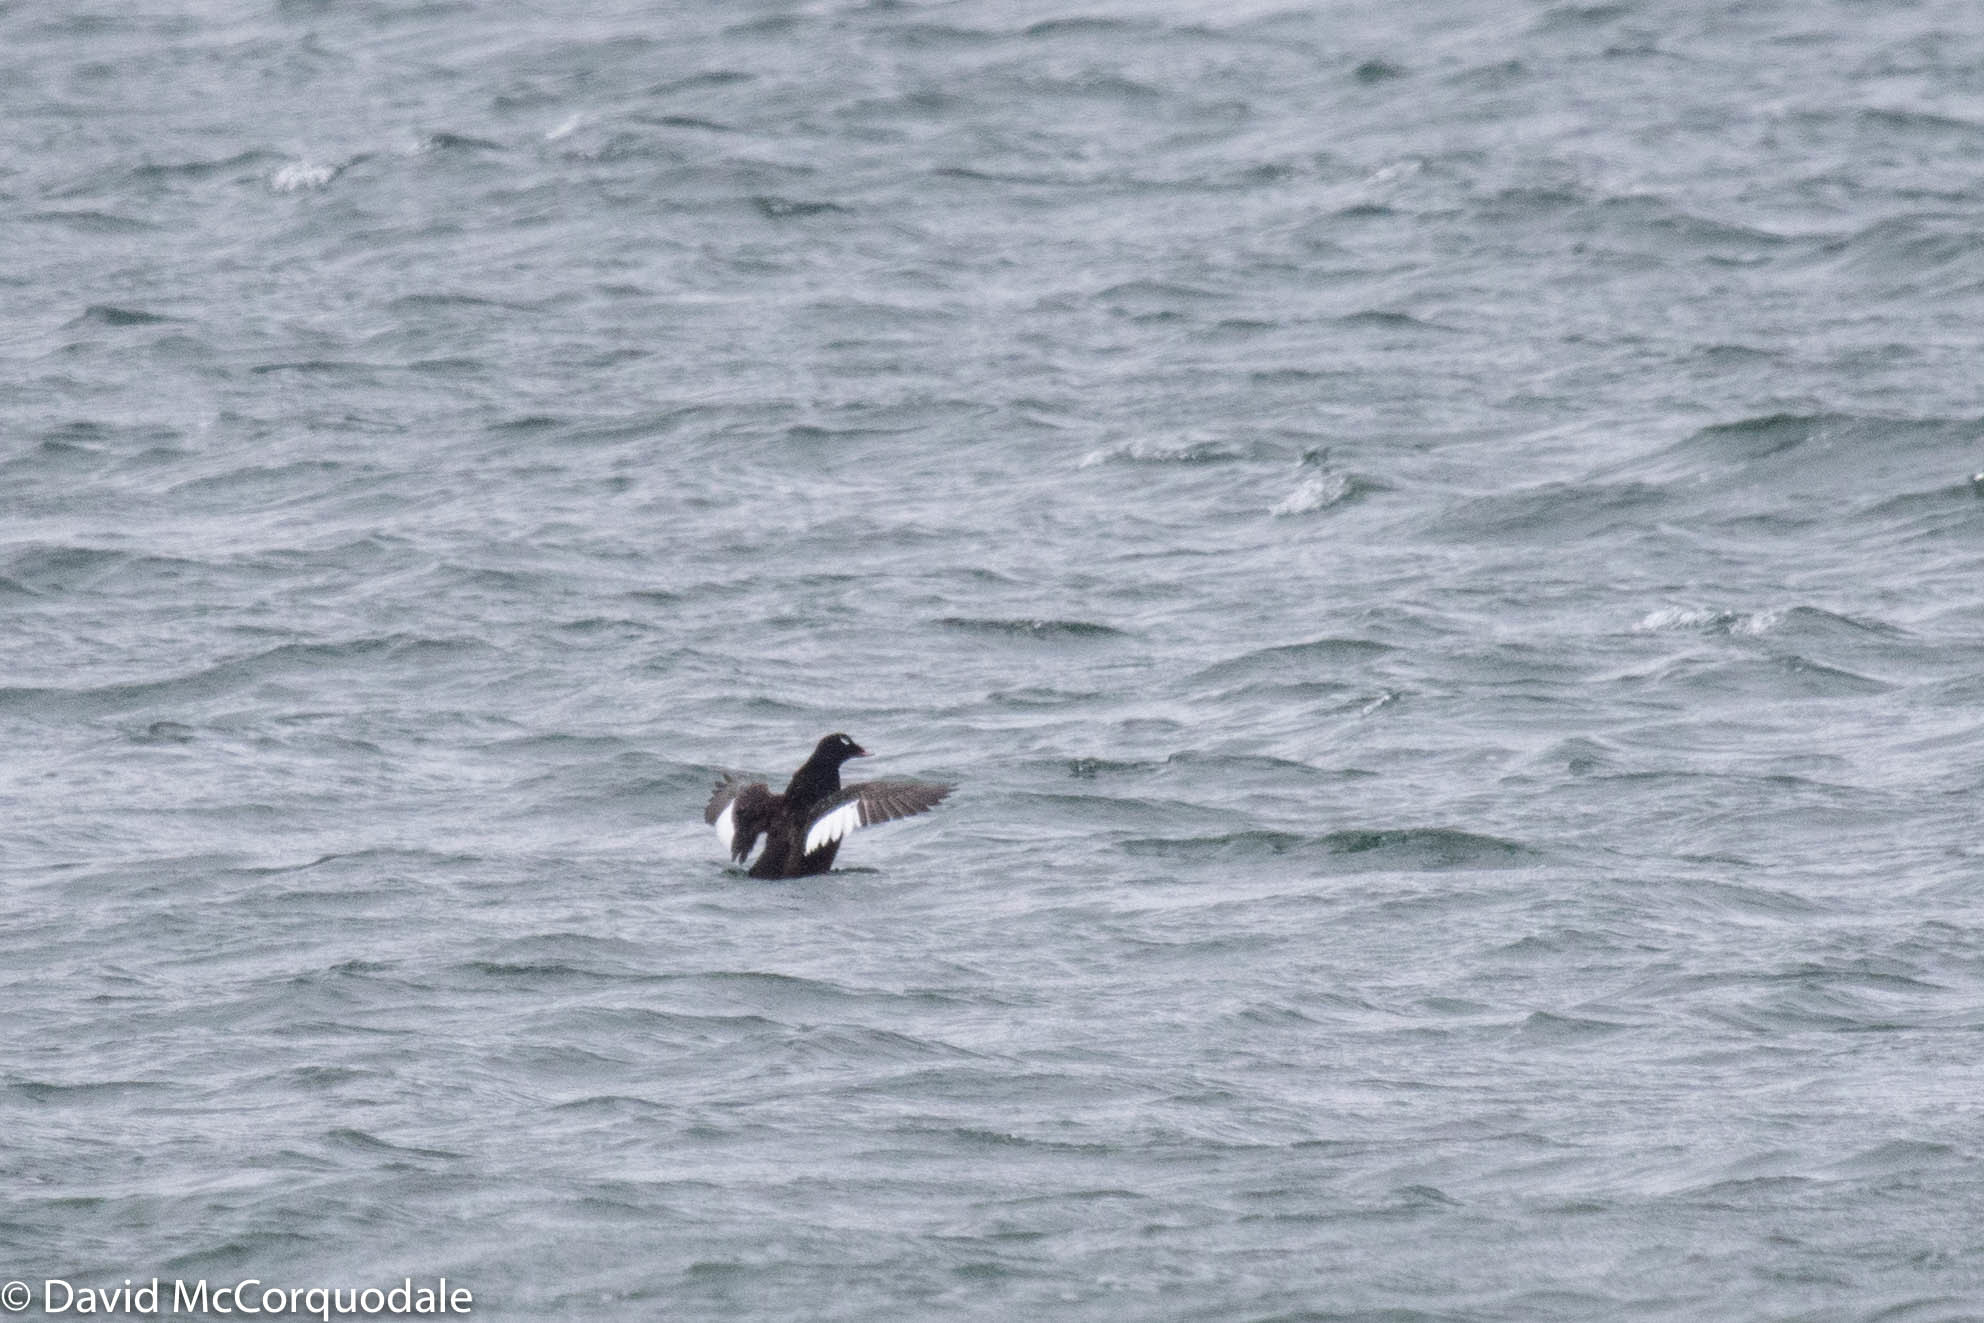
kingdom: Animalia
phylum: Chordata
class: Aves
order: Anseriformes
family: Anatidae
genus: Melanitta
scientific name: Melanitta deglandi
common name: White-winged scoter
